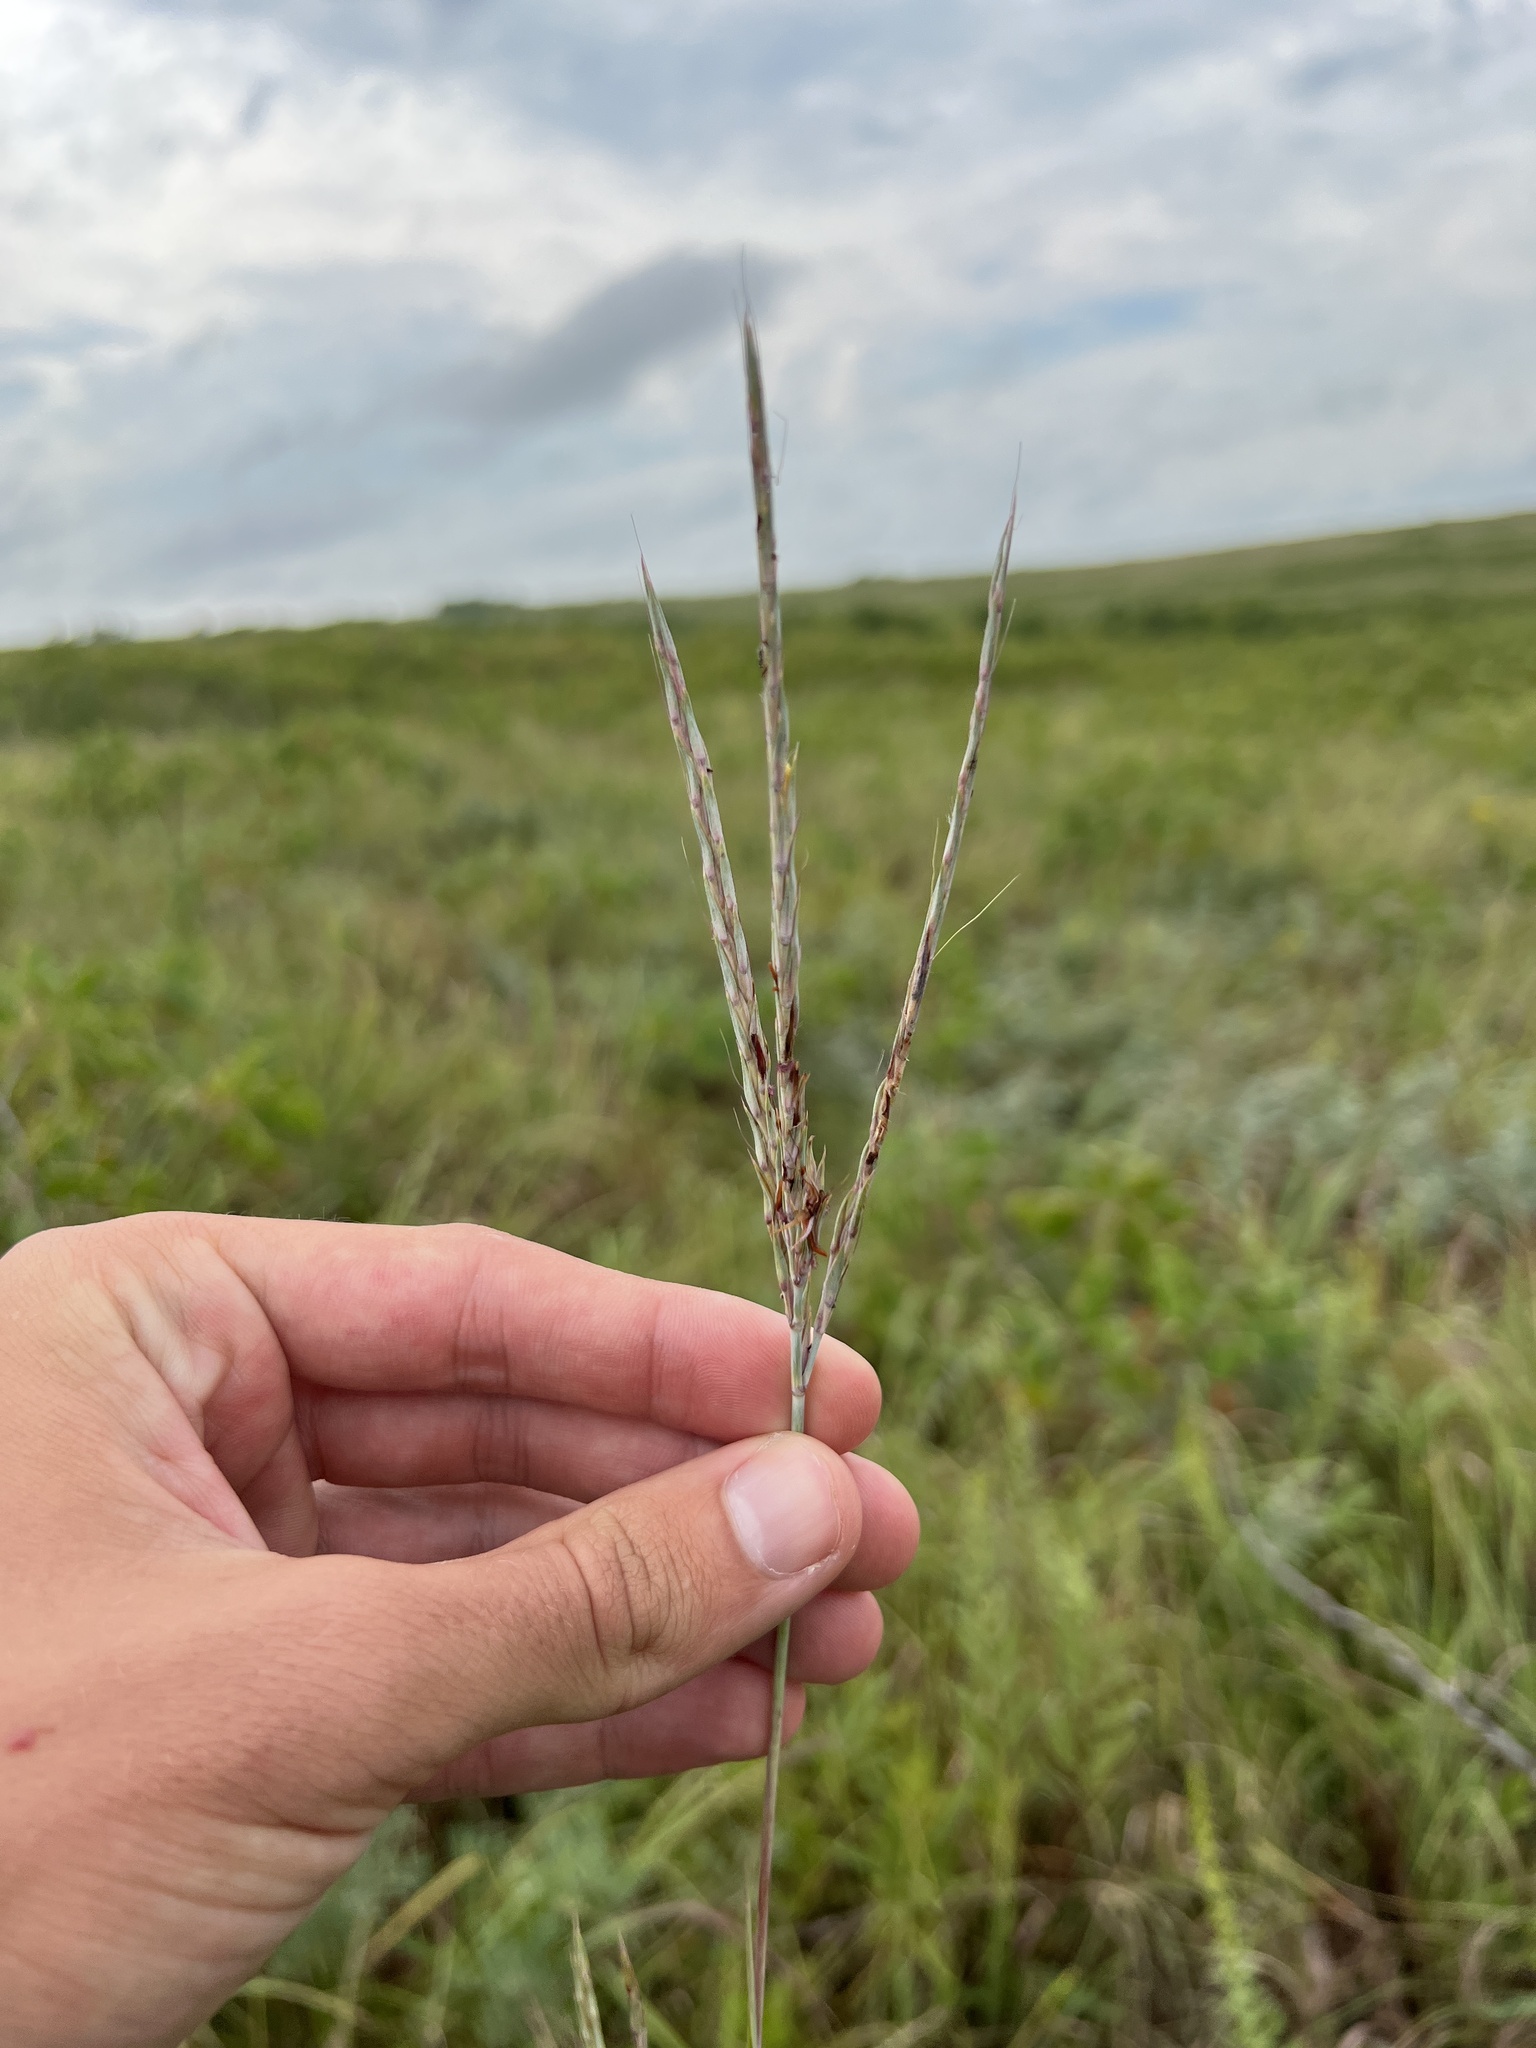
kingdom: Plantae
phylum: Tracheophyta
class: Liliopsida
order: Poales
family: Poaceae
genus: Andropogon
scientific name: Andropogon gerardi
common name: Big bluestem
